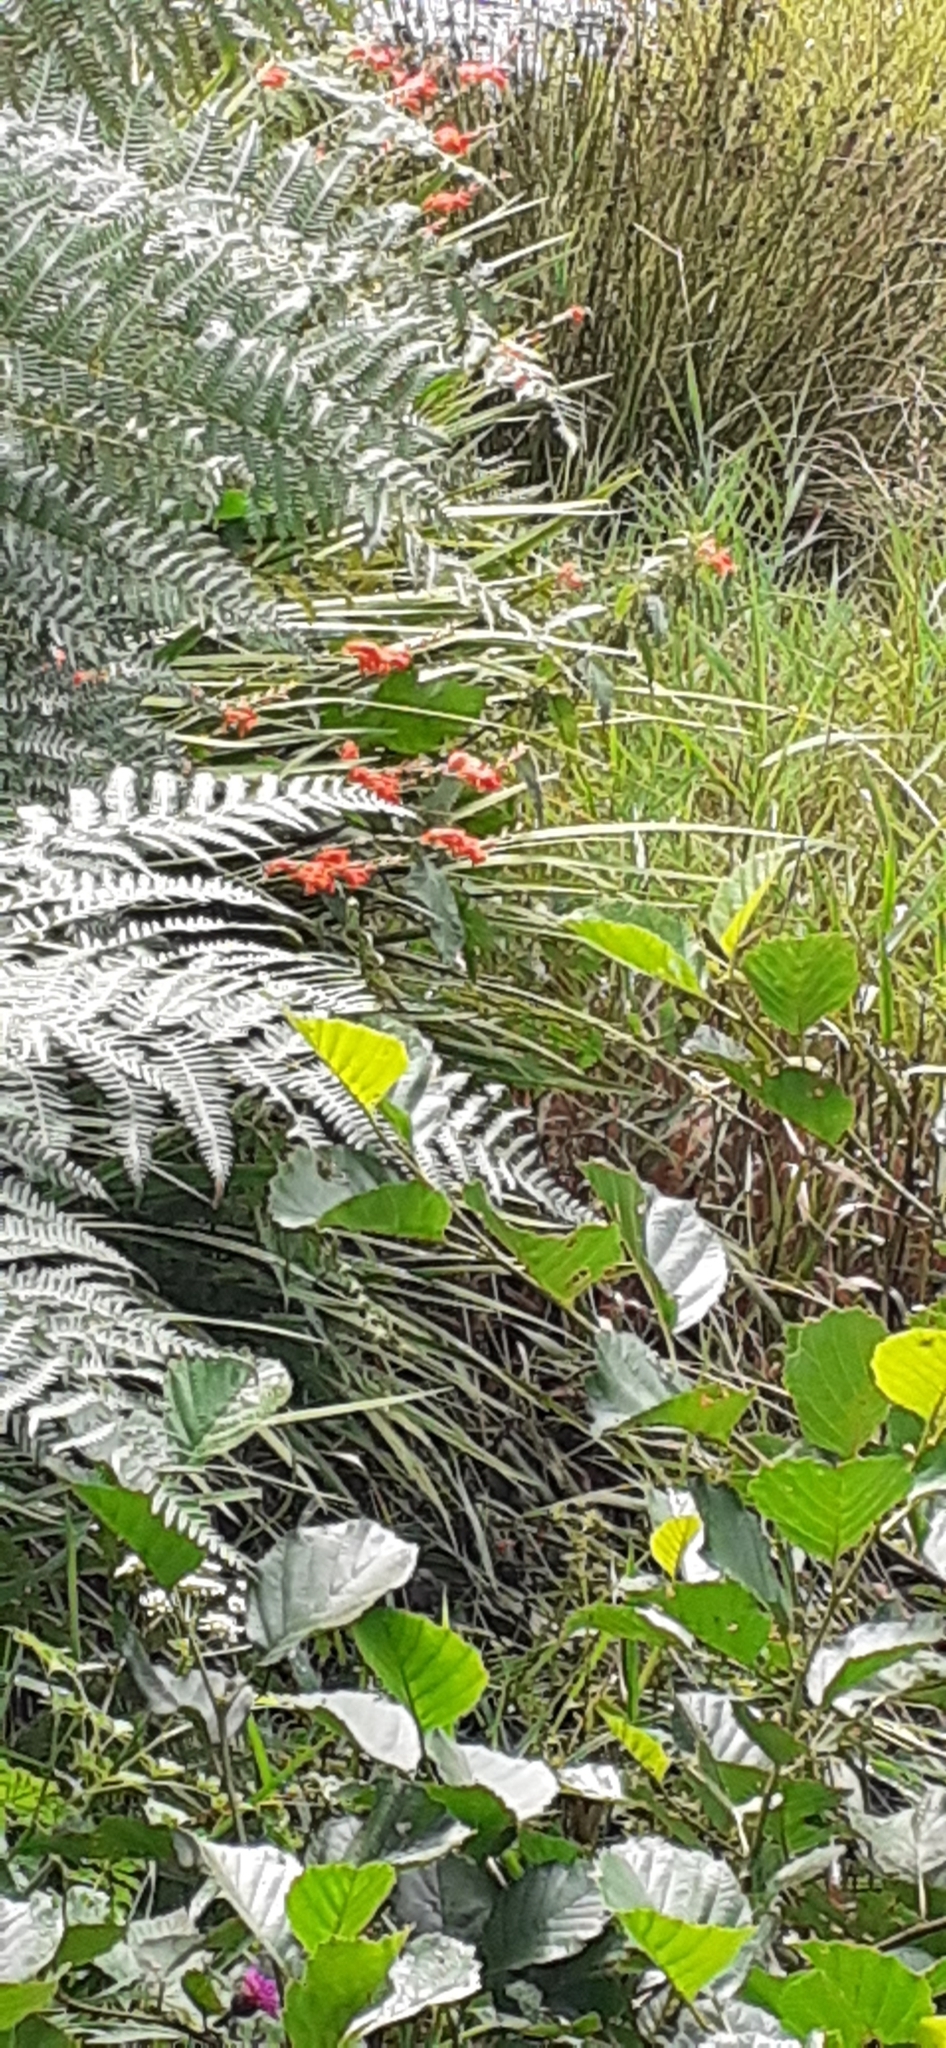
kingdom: Plantae
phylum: Tracheophyta
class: Liliopsida
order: Asparagales
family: Iridaceae
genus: Crocosmia
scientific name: Crocosmia crocosmiiflora
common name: Montbretia
